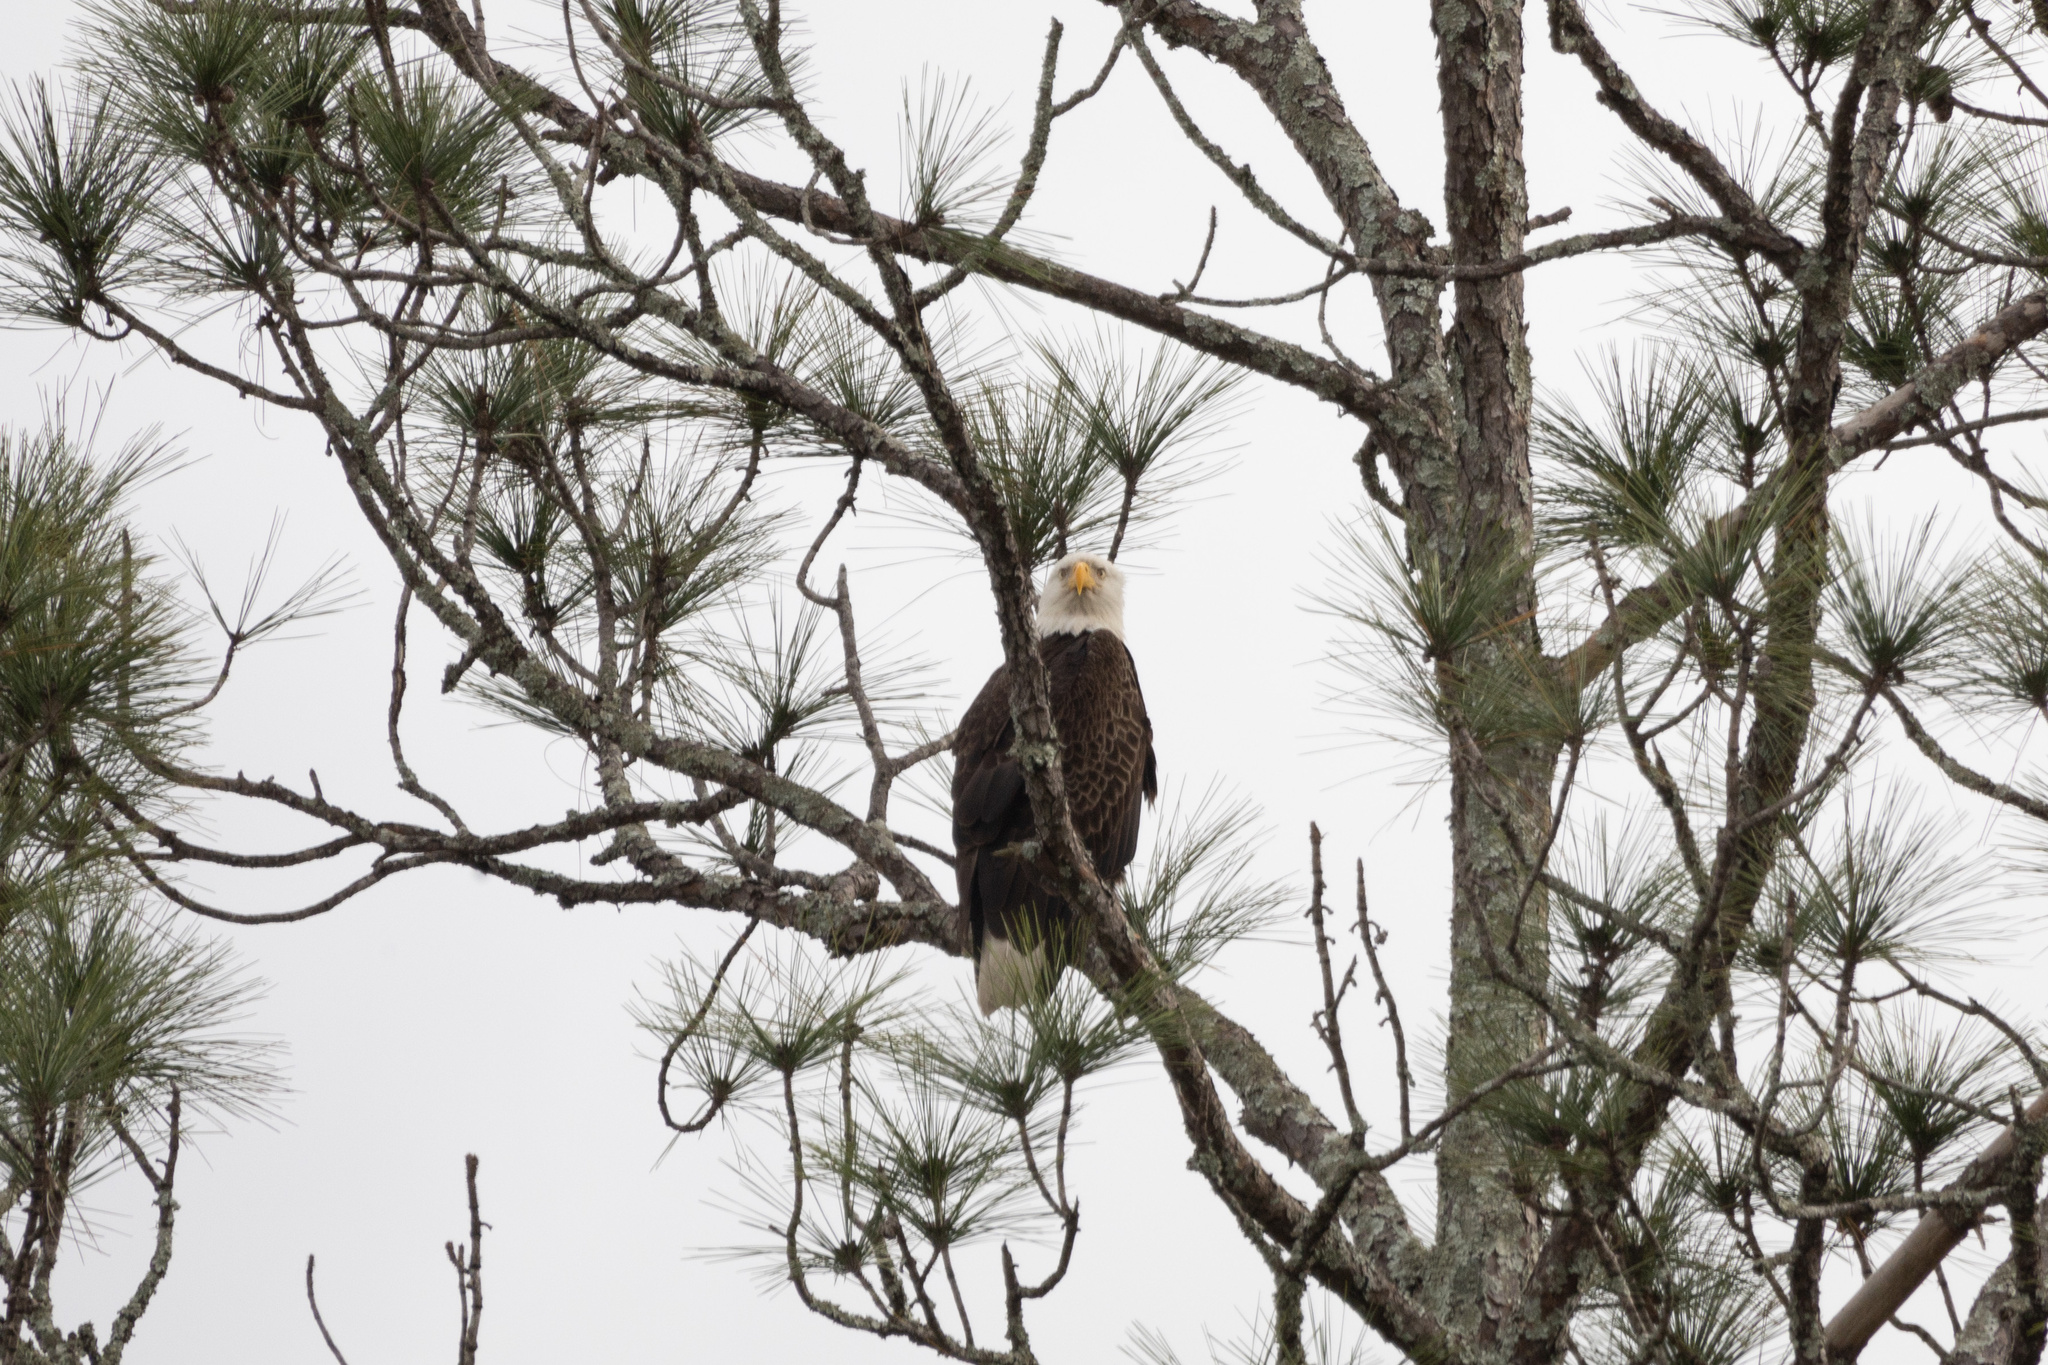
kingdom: Animalia
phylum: Chordata
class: Aves
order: Accipitriformes
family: Accipitridae
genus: Haliaeetus
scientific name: Haliaeetus leucocephalus
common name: Bald eagle
